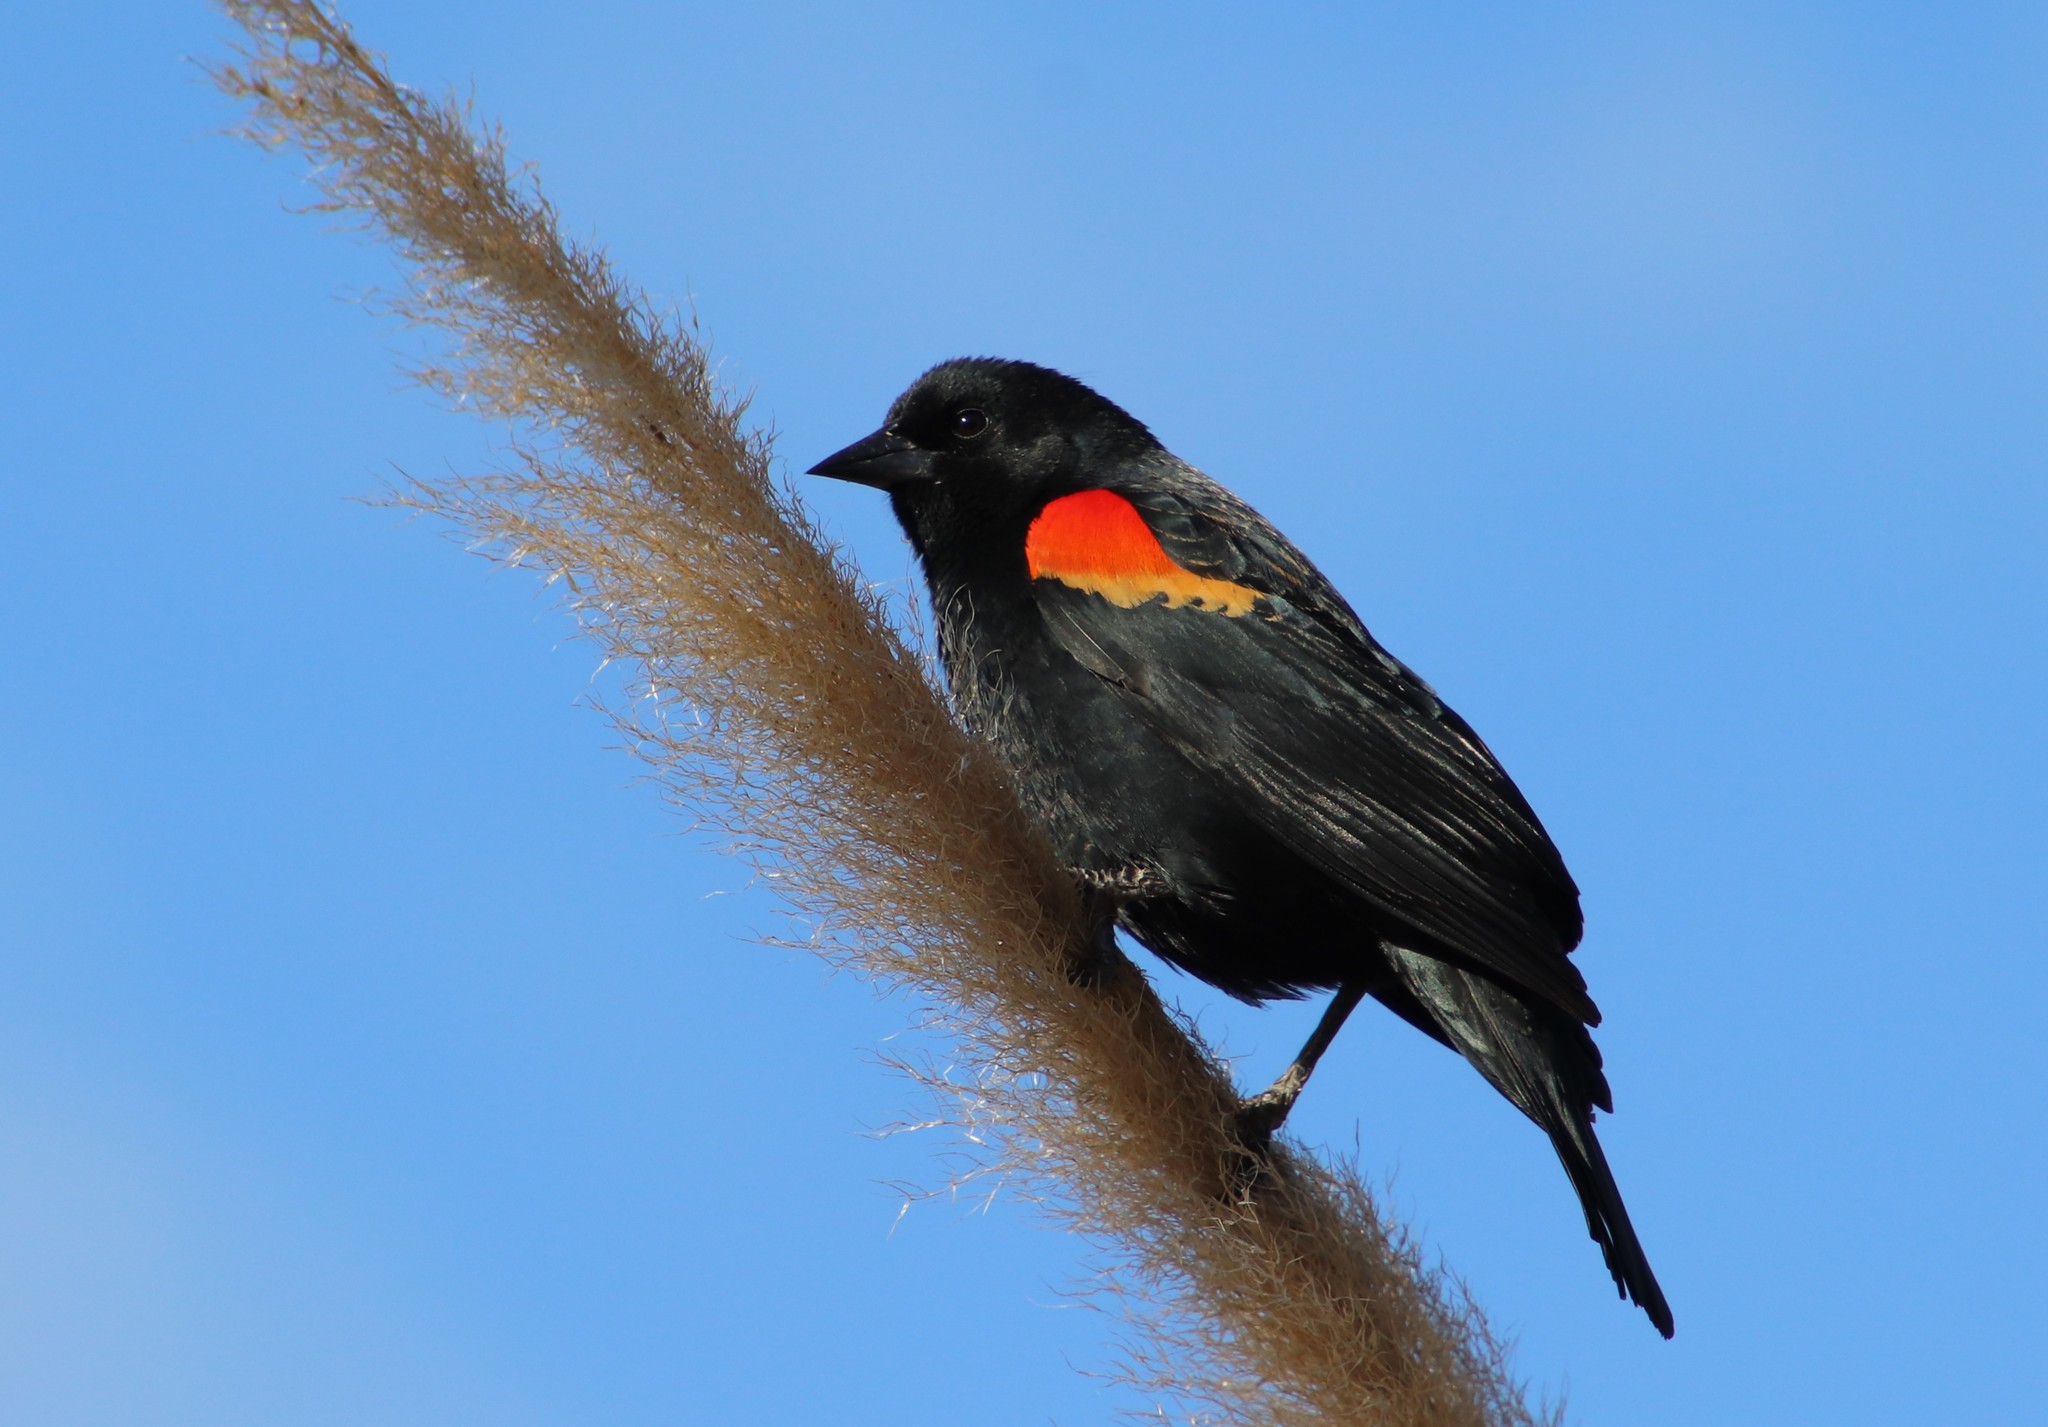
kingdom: Animalia
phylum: Chordata
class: Aves
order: Passeriformes
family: Icteridae
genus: Agelaius
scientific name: Agelaius phoeniceus
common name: Red-winged blackbird
